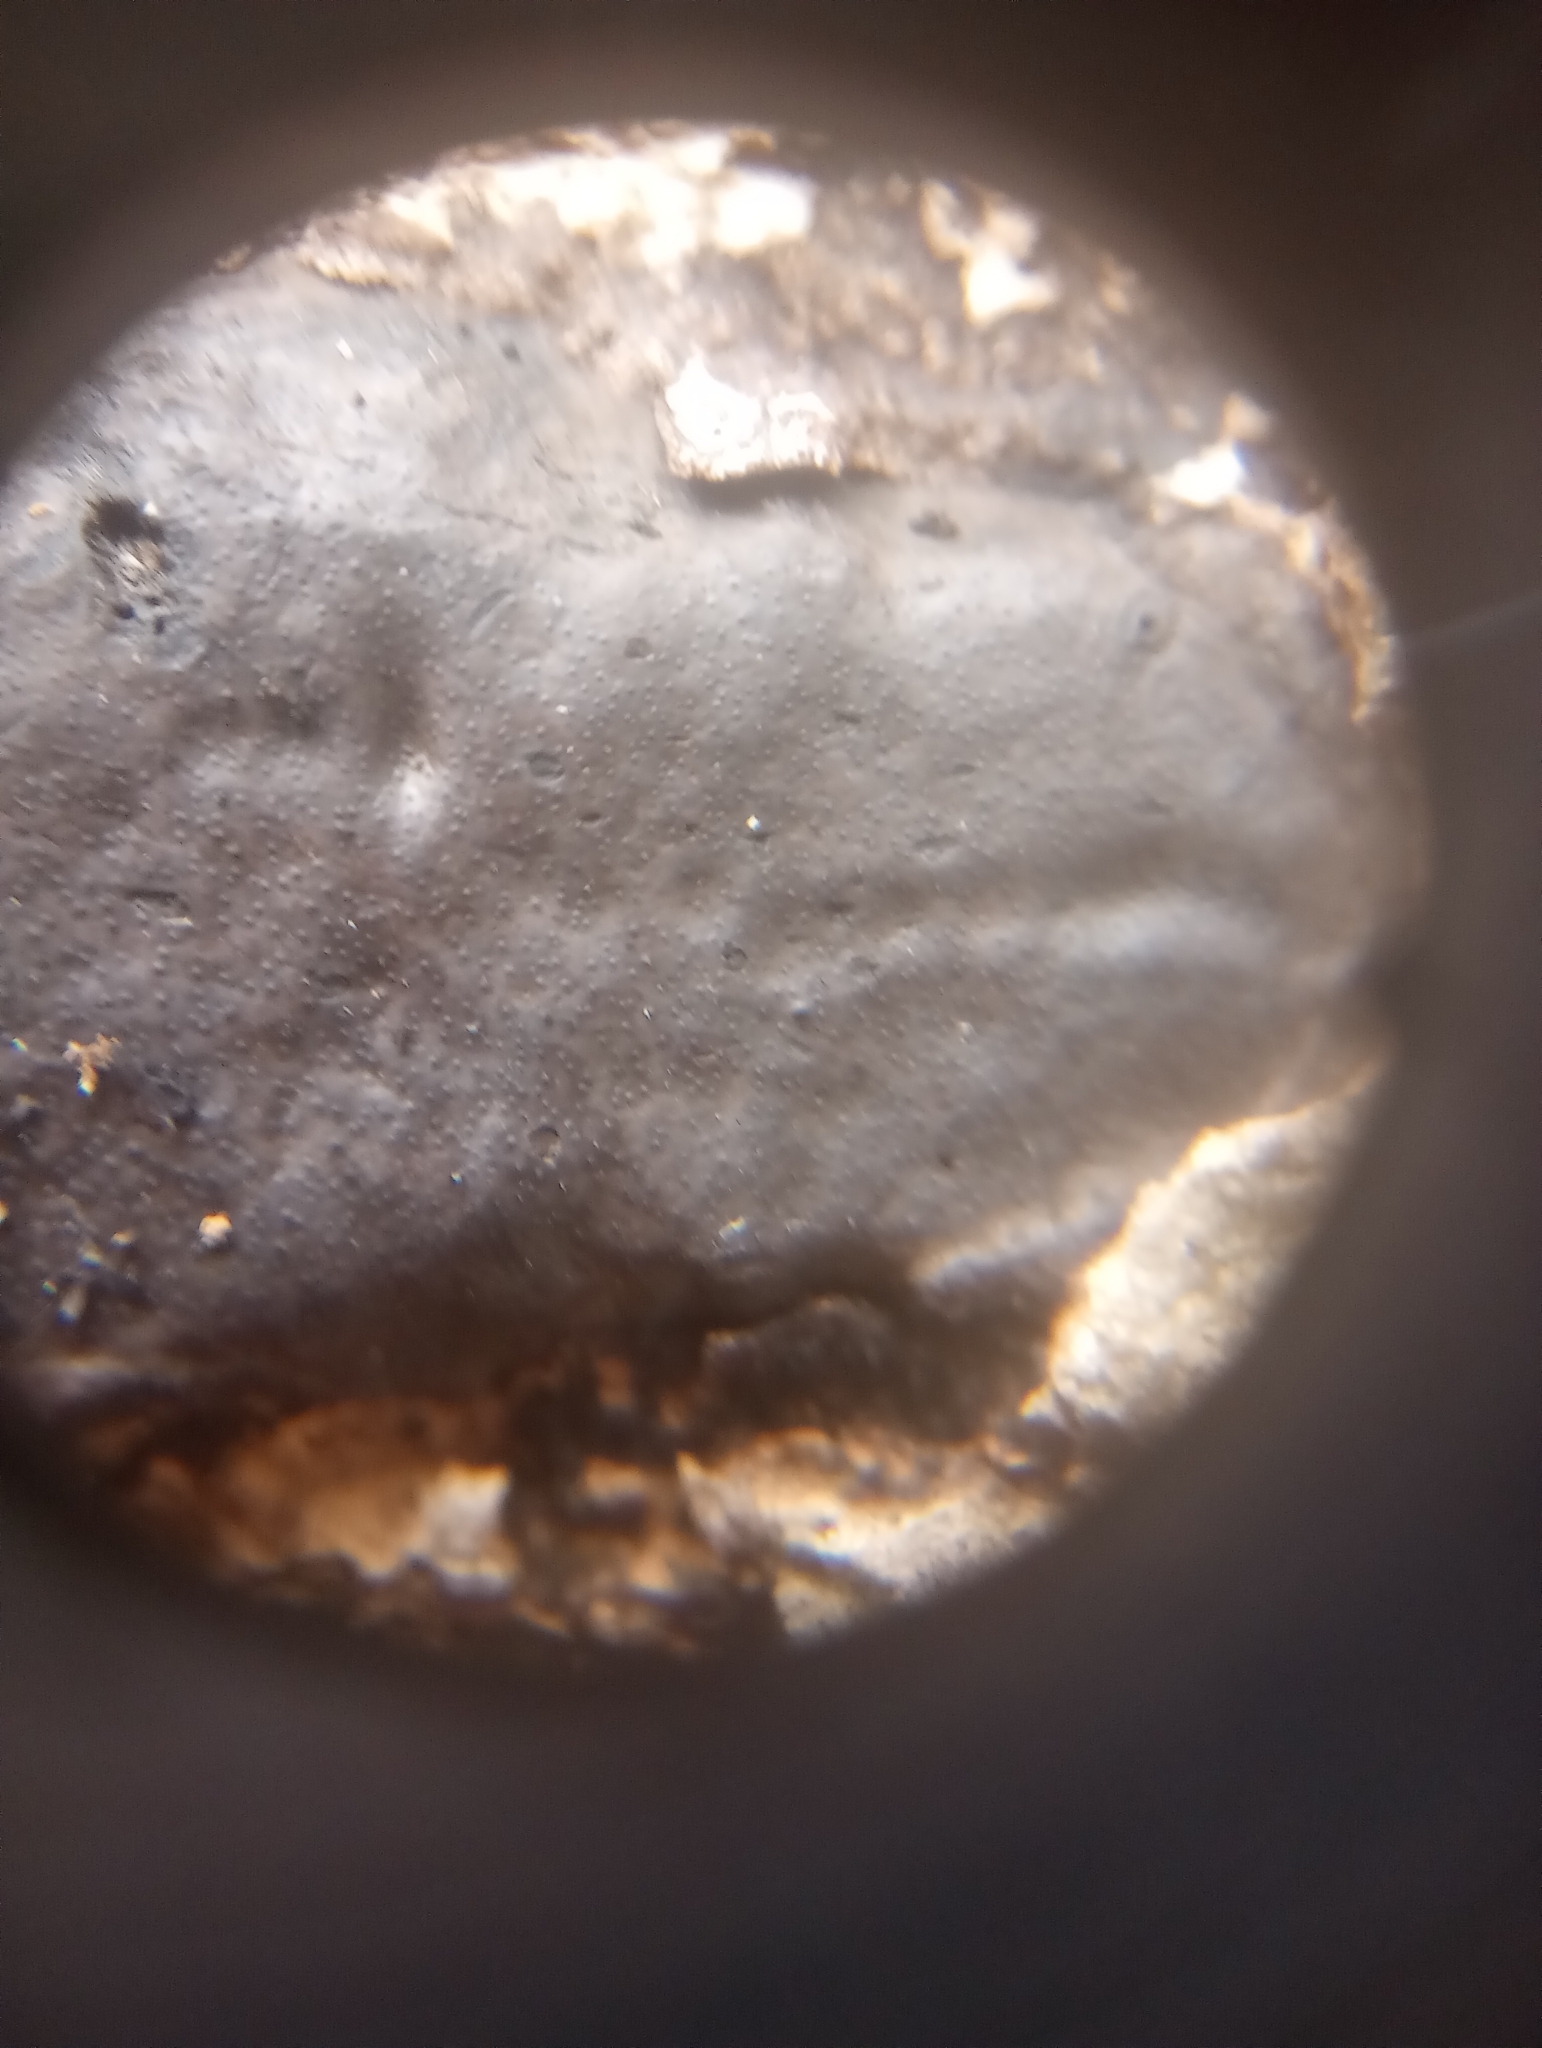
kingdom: Fungi
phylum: Ascomycota
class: Sordariomycetes
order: Xylariales
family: Graphostromataceae
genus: Camillea
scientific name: Camillea tinctor
